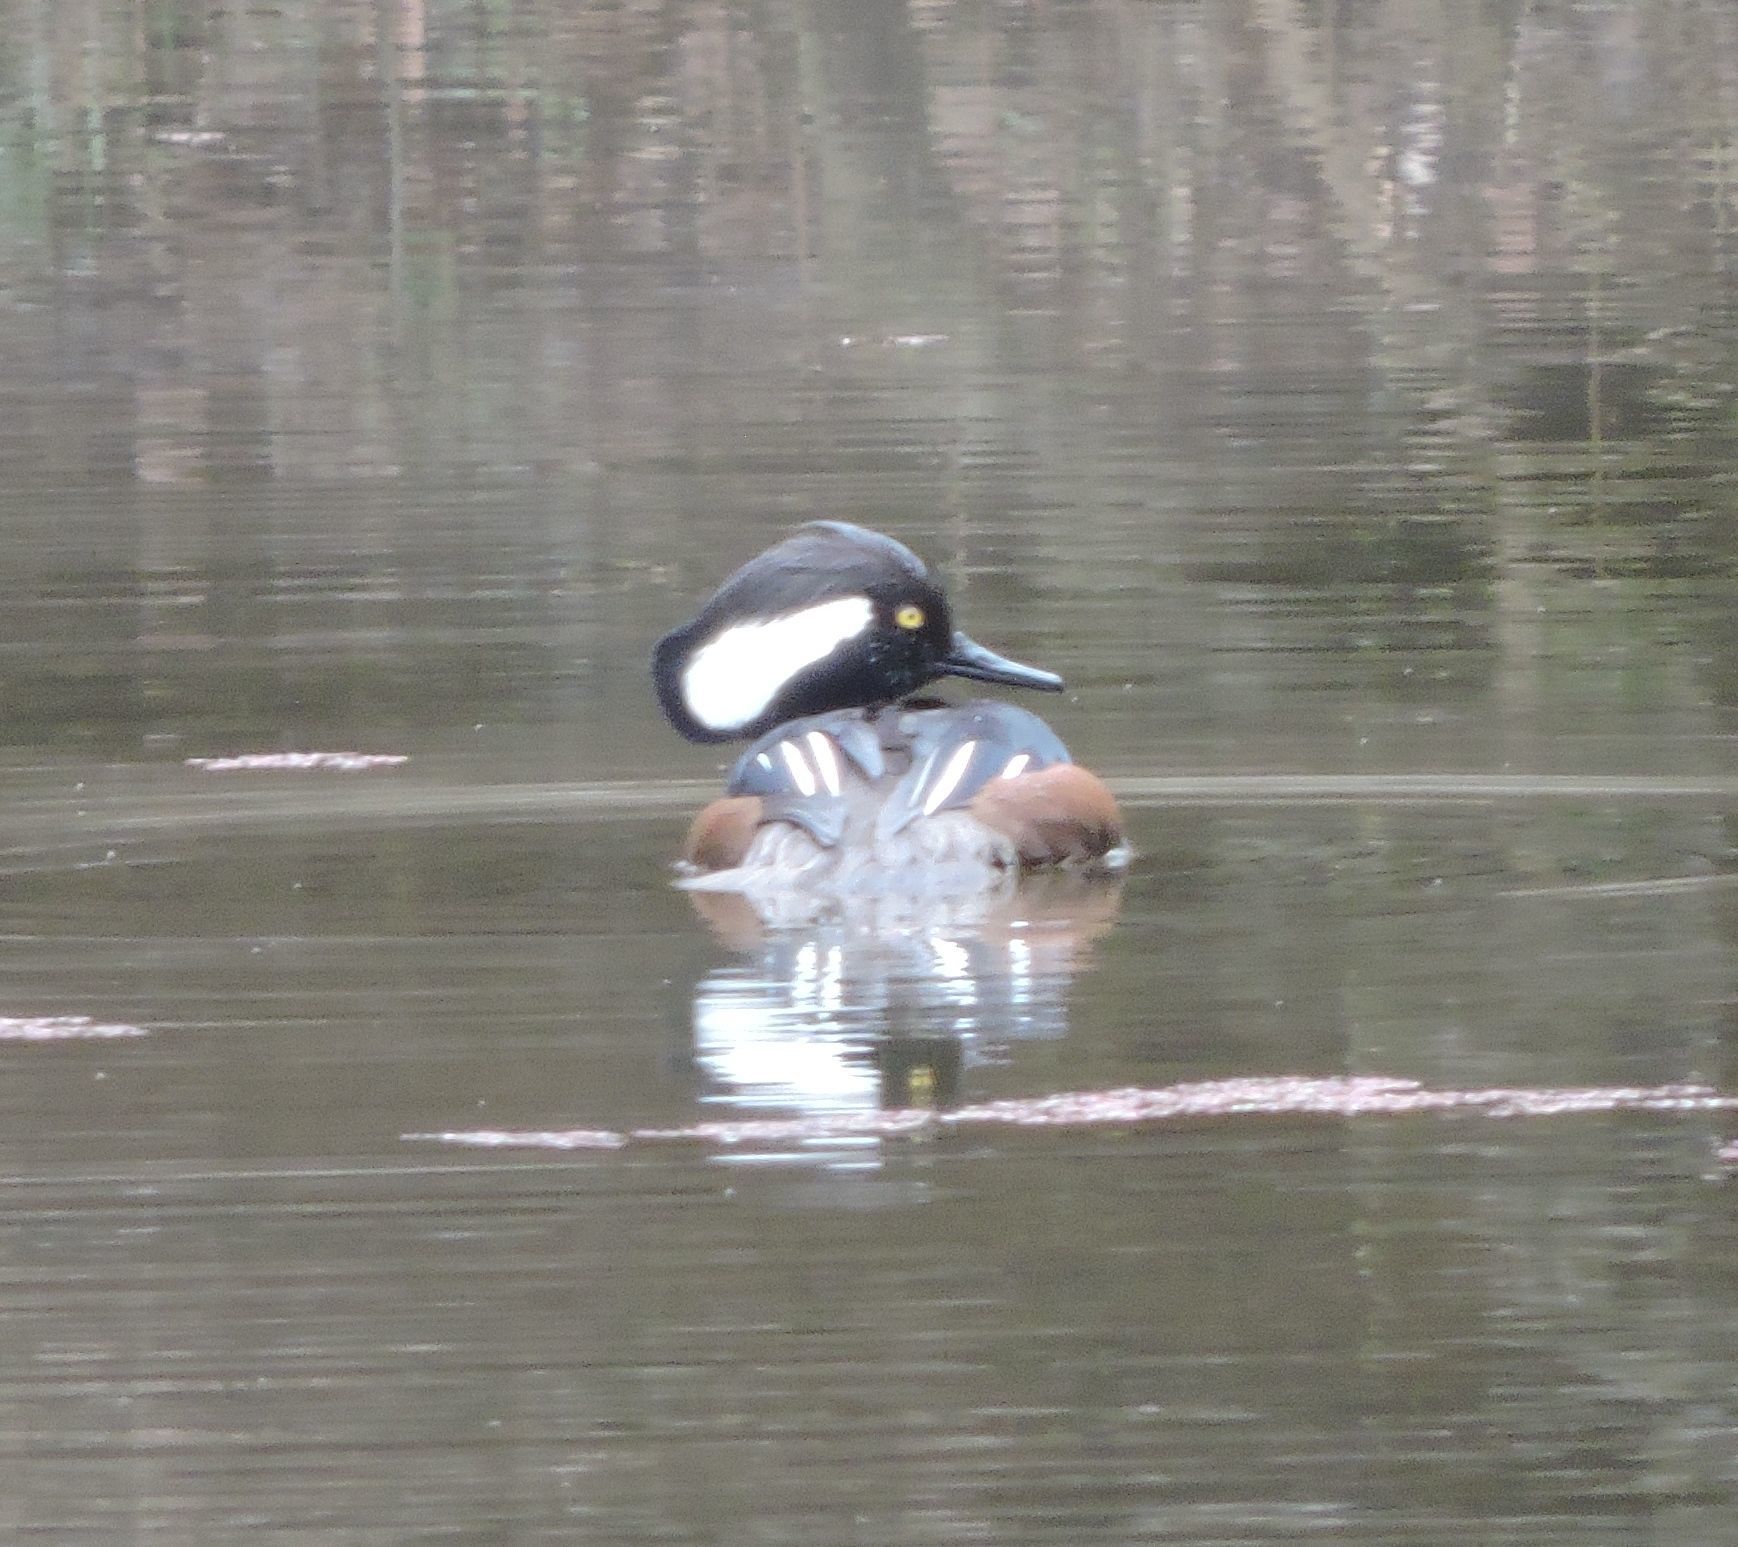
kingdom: Animalia
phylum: Chordata
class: Aves
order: Anseriformes
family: Anatidae
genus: Lophodytes
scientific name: Lophodytes cucullatus
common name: Hooded merganser
